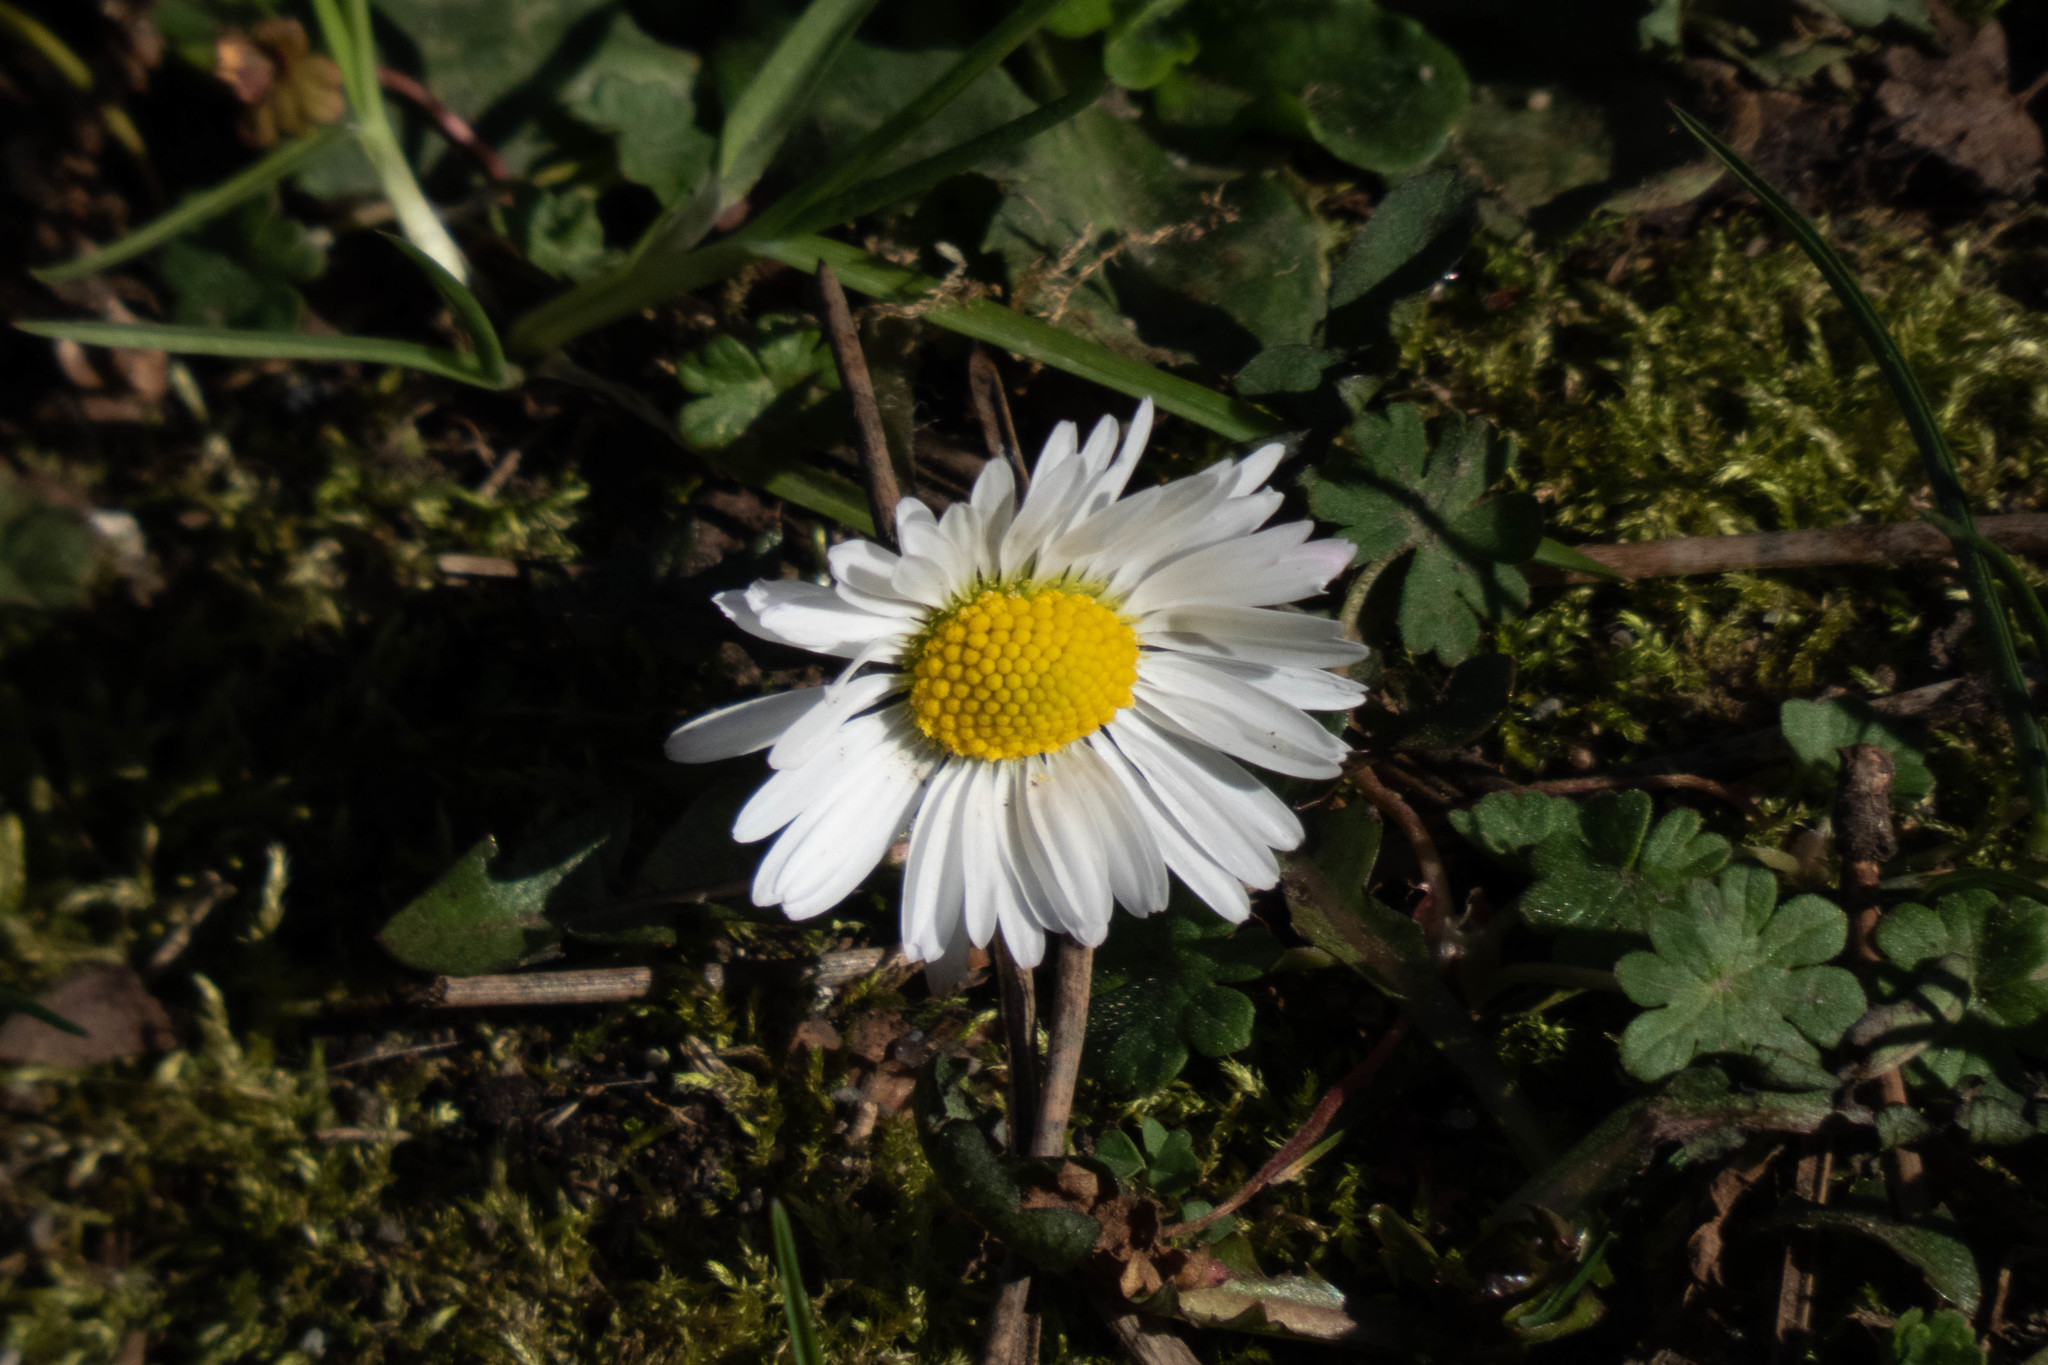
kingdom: Plantae
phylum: Tracheophyta
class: Magnoliopsida
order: Asterales
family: Asteraceae
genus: Bellis
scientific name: Bellis perennis
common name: Lawndaisy
